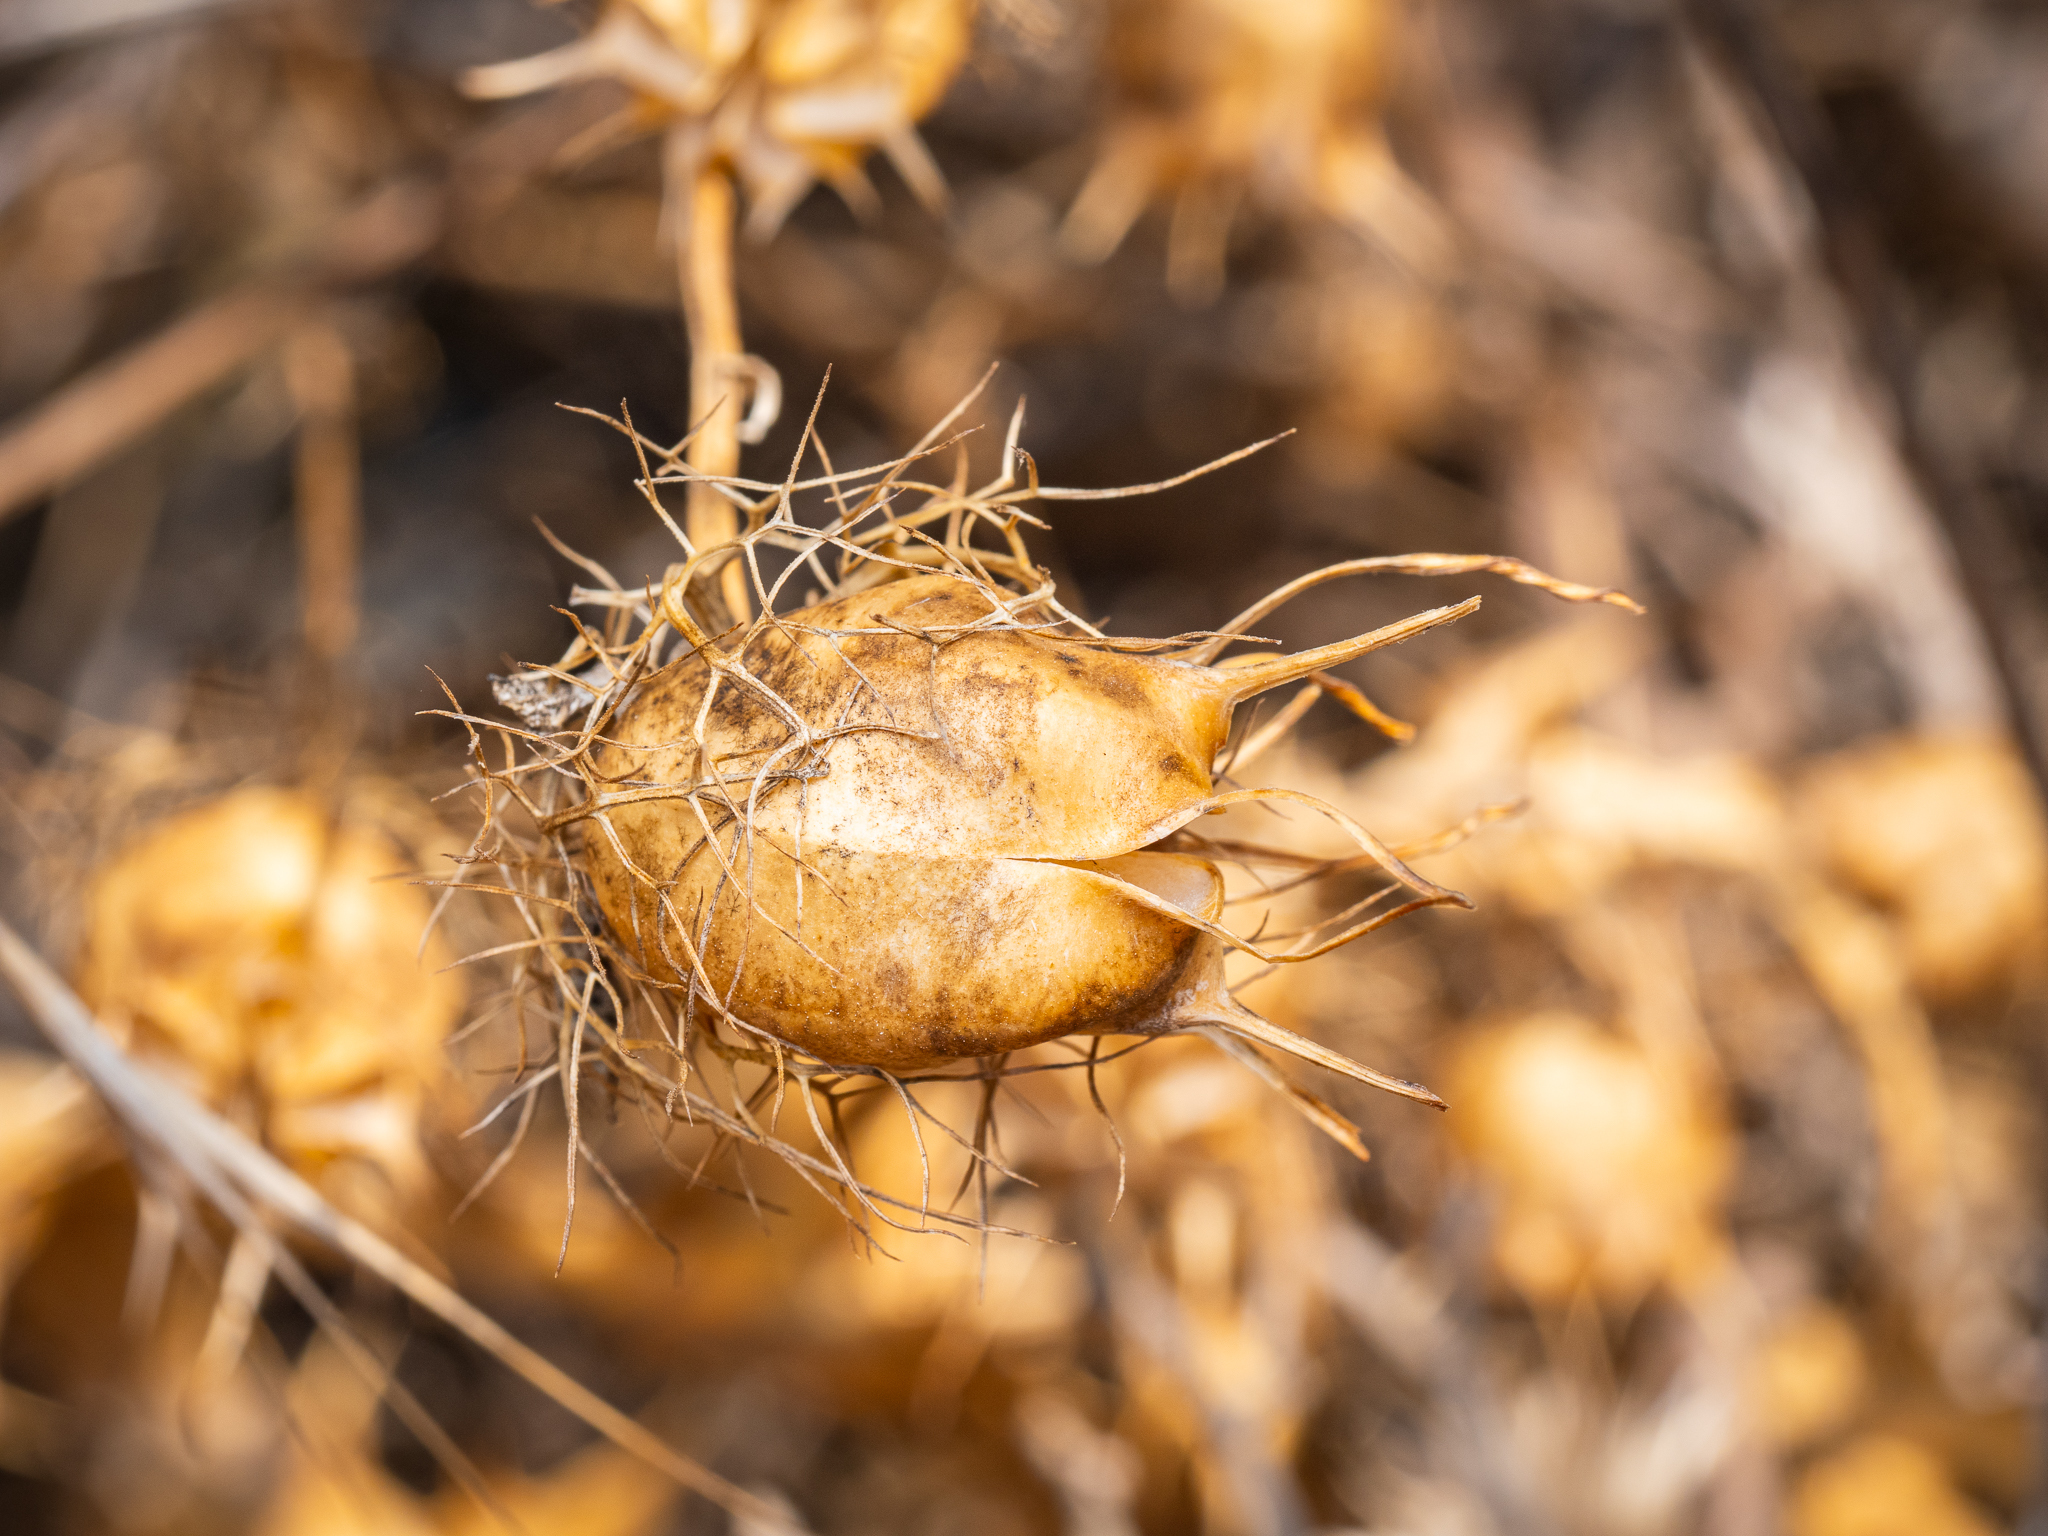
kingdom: Plantae
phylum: Tracheophyta
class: Magnoliopsida
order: Ranunculales
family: Ranunculaceae
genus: Nigella
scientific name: Nigella damascena
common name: Love-in-a-mist
